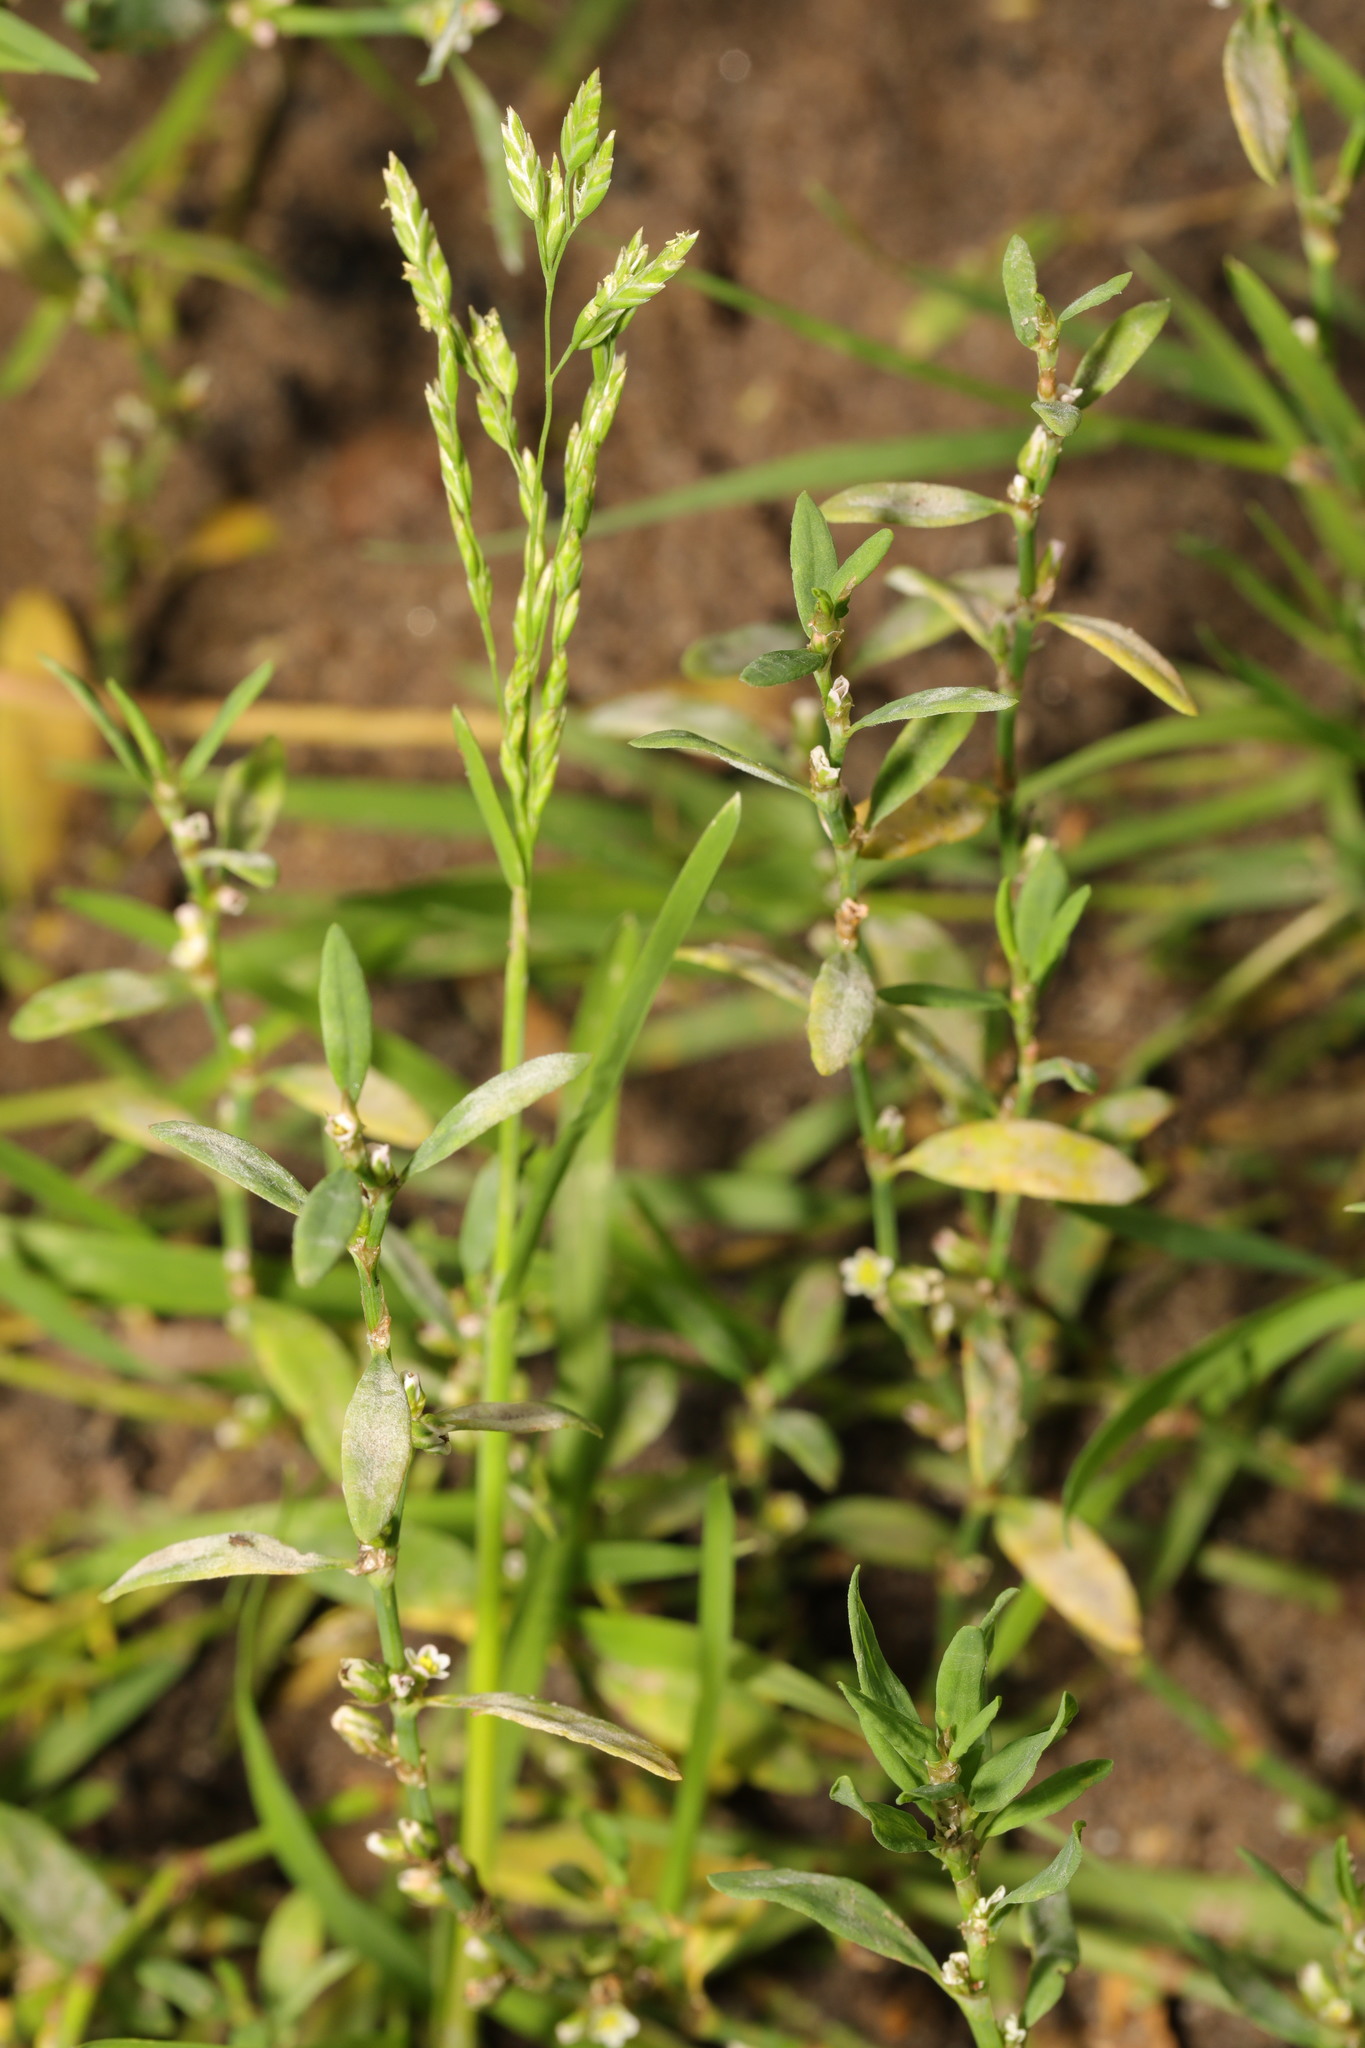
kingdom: Plantae
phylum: Tracheophyta
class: Liliopsida
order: Poales
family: Poaceae
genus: Poa
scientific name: Poa annua
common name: Annual bluegrass
